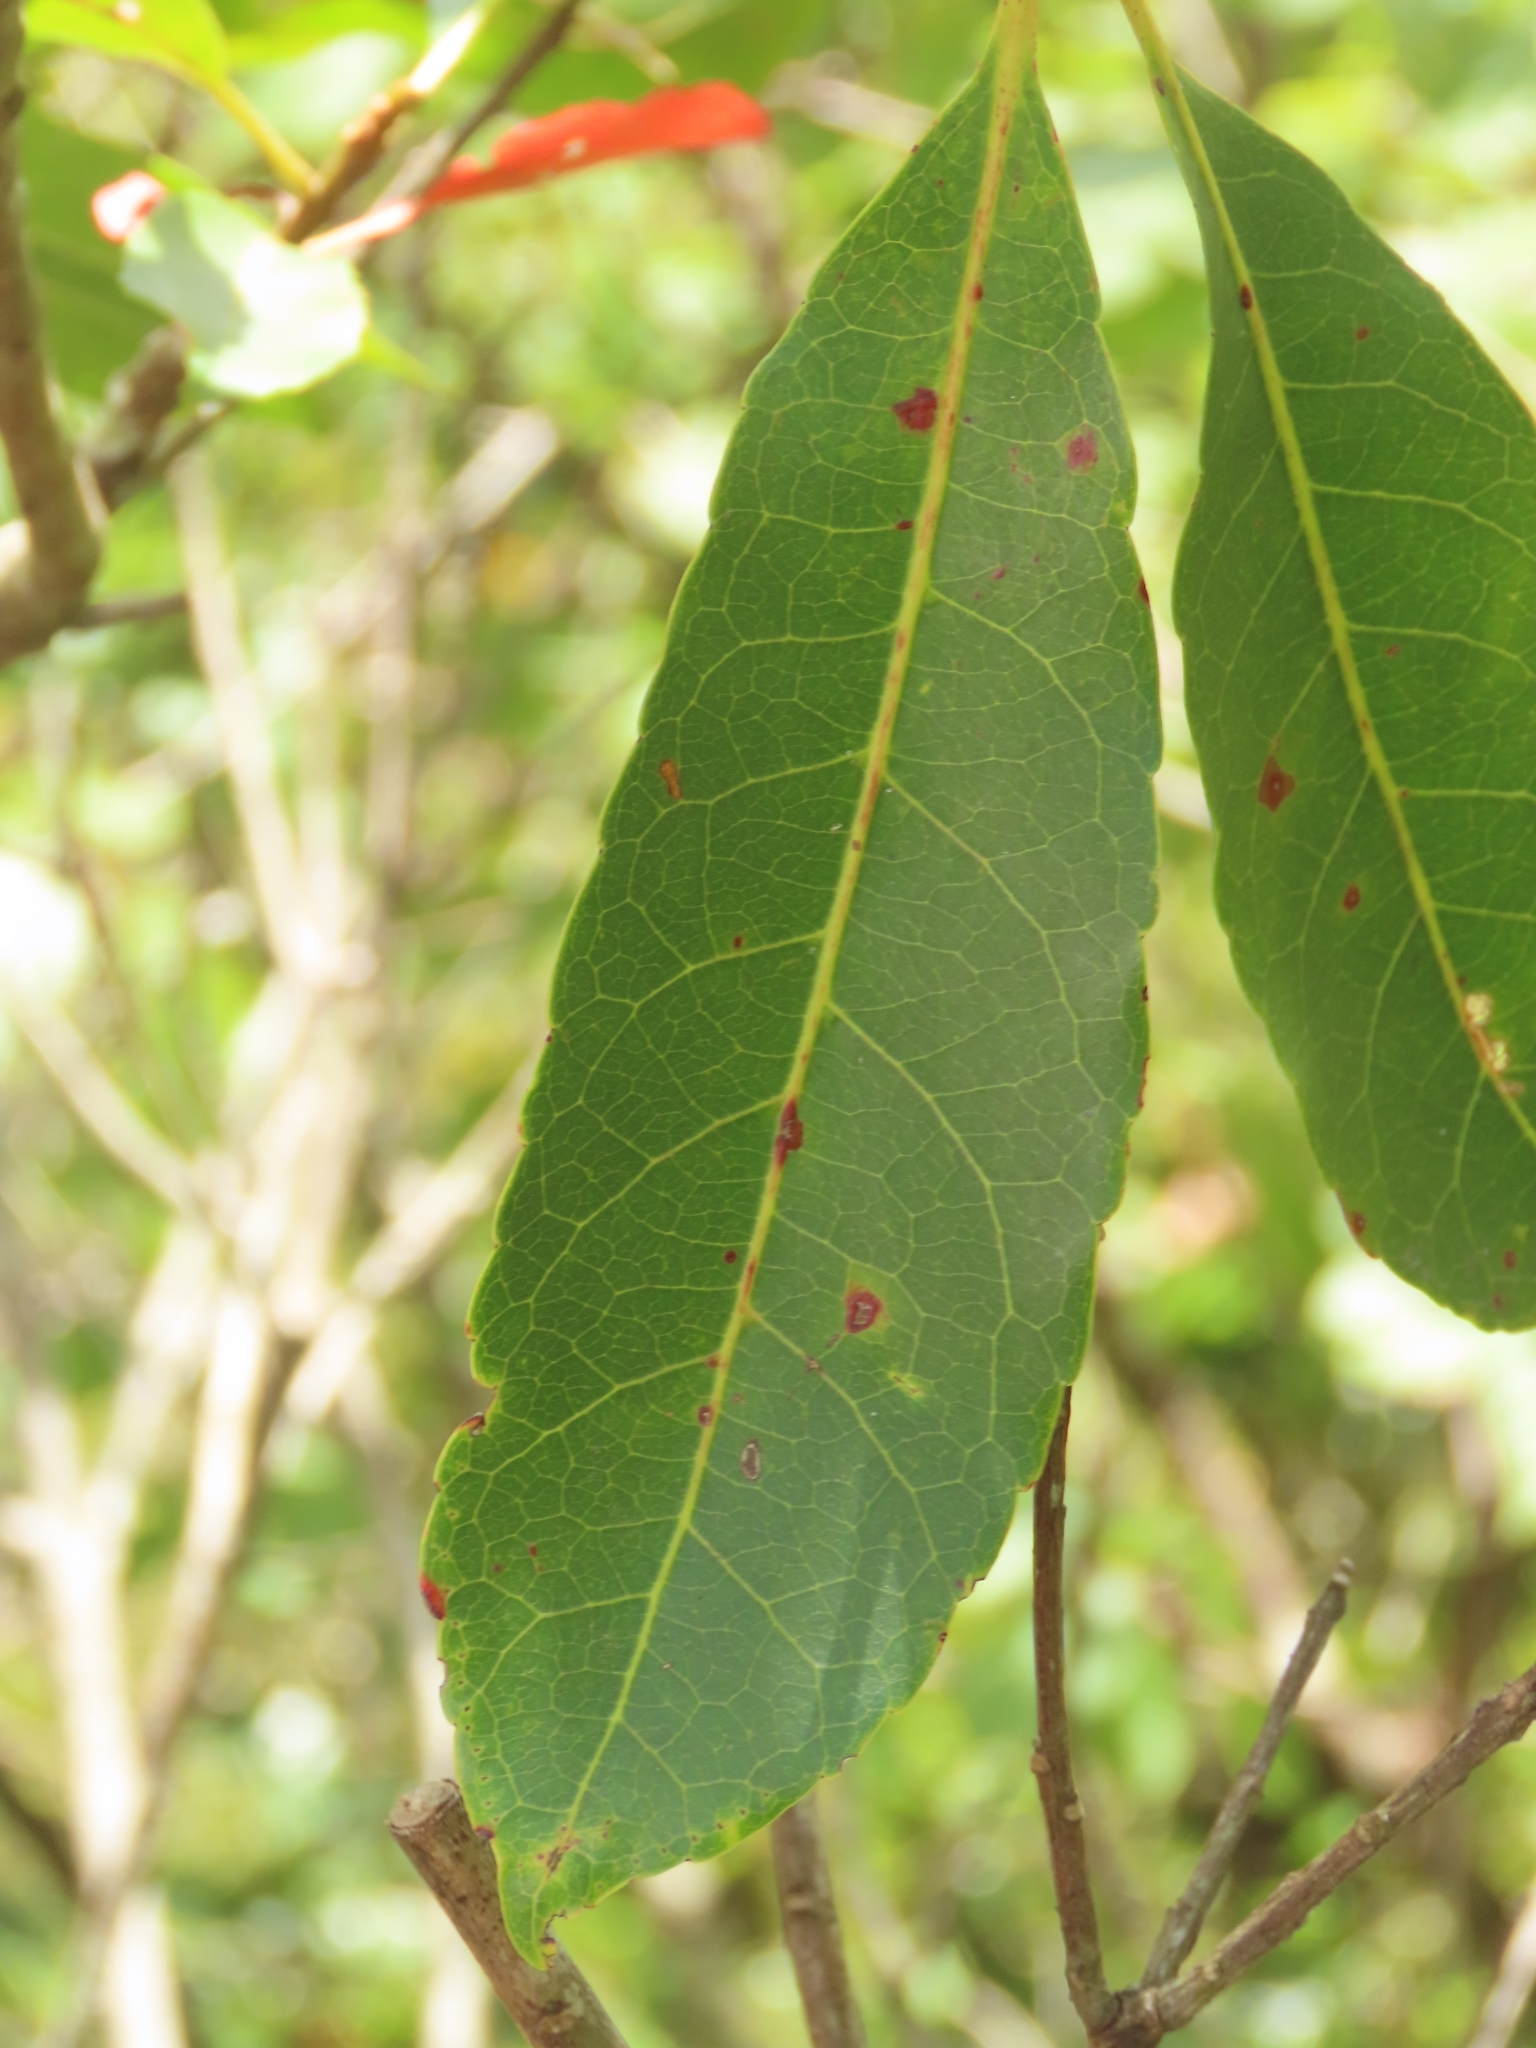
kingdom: Plantae
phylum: Tracheophyta
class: Magnoliopsida
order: Oxalidales
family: Elaeocarpaceae
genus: Elaeocarpus
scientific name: Elaeocarpus decipiens
